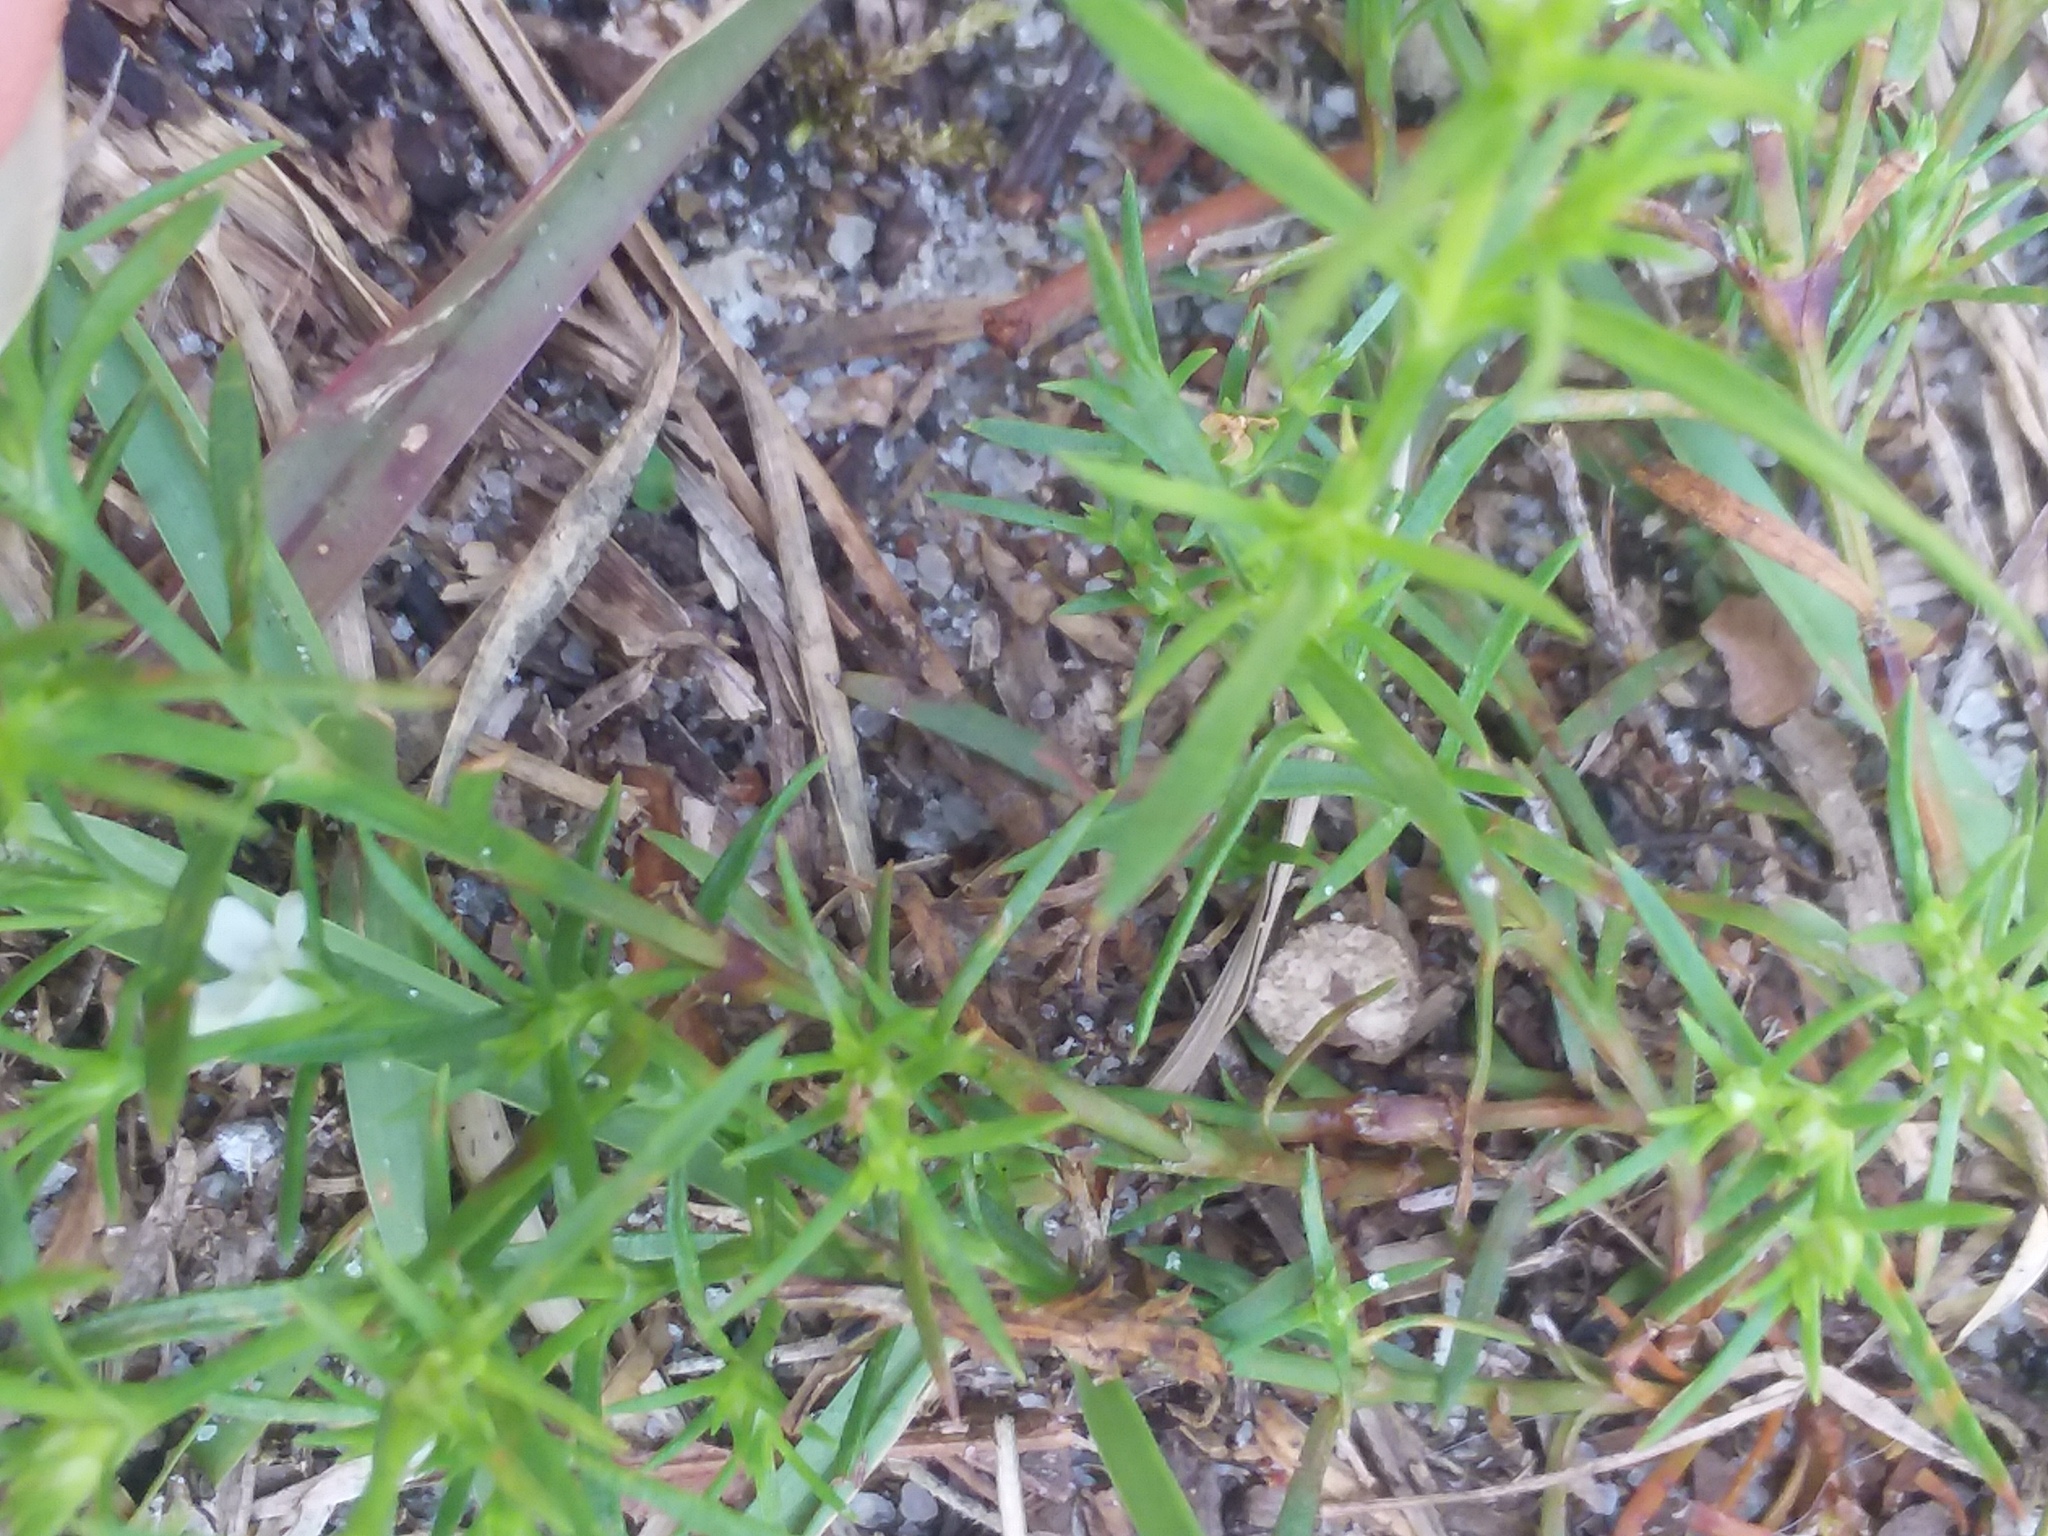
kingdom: Plantae
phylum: Tracheophyta
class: Magnoliopsida
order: Lamiales
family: Tetrachondraceae
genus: Polypremum
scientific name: Polypremum procumbens
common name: Juniper-leaf
